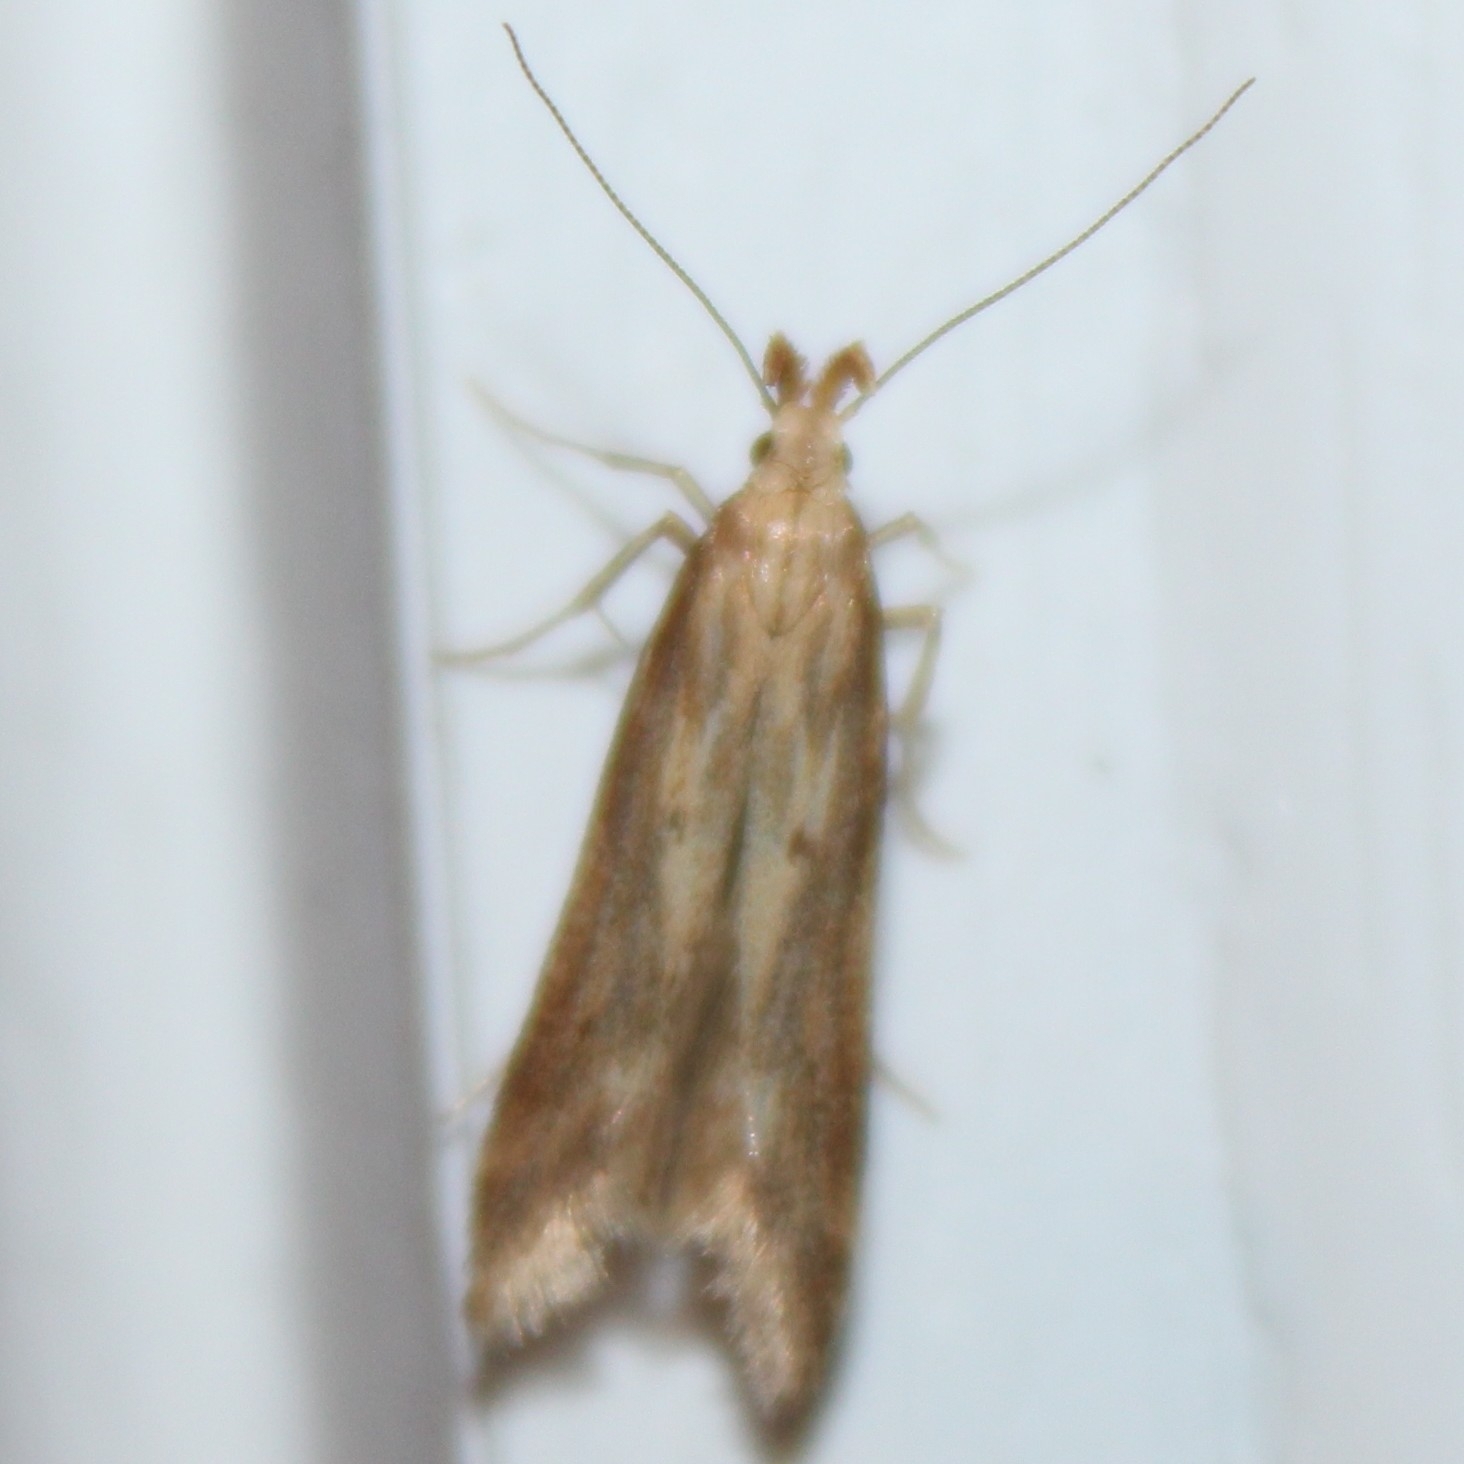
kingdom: Animalia
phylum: Arthropoda
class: Insecta
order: Lepidoptera
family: Gelechiidae
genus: Metzneria
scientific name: Metzneria lappella
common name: Burdock neb
